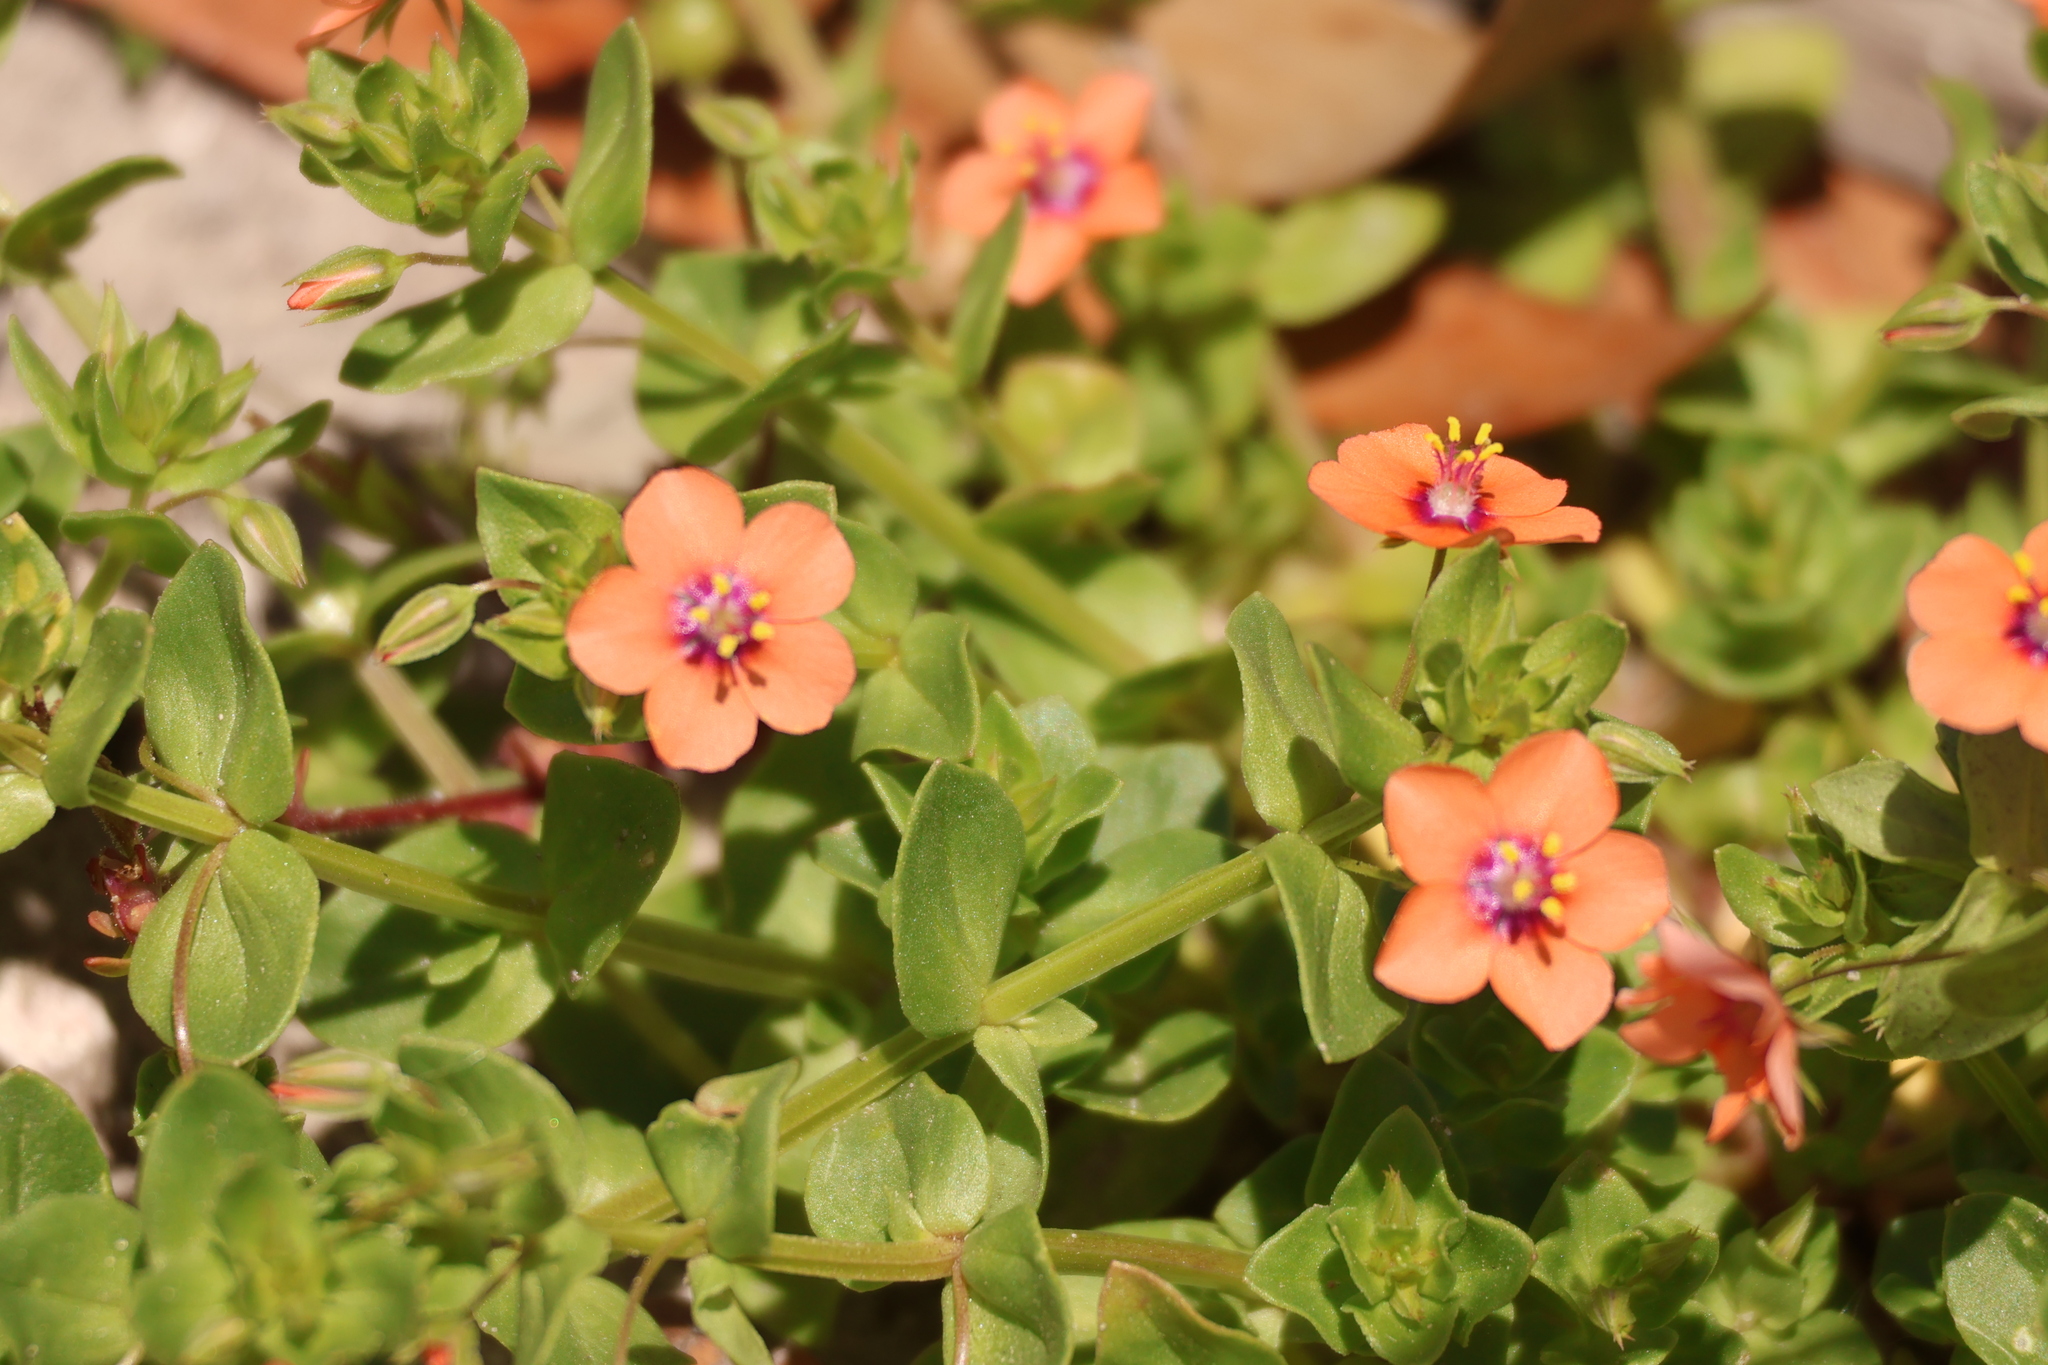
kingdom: Plantae
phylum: Tracheophyta
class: Magnoliopsida
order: Ericales
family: Primulaceae
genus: Lysimachia
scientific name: Lysimachia arvensis
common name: Scarlet pimpernel
